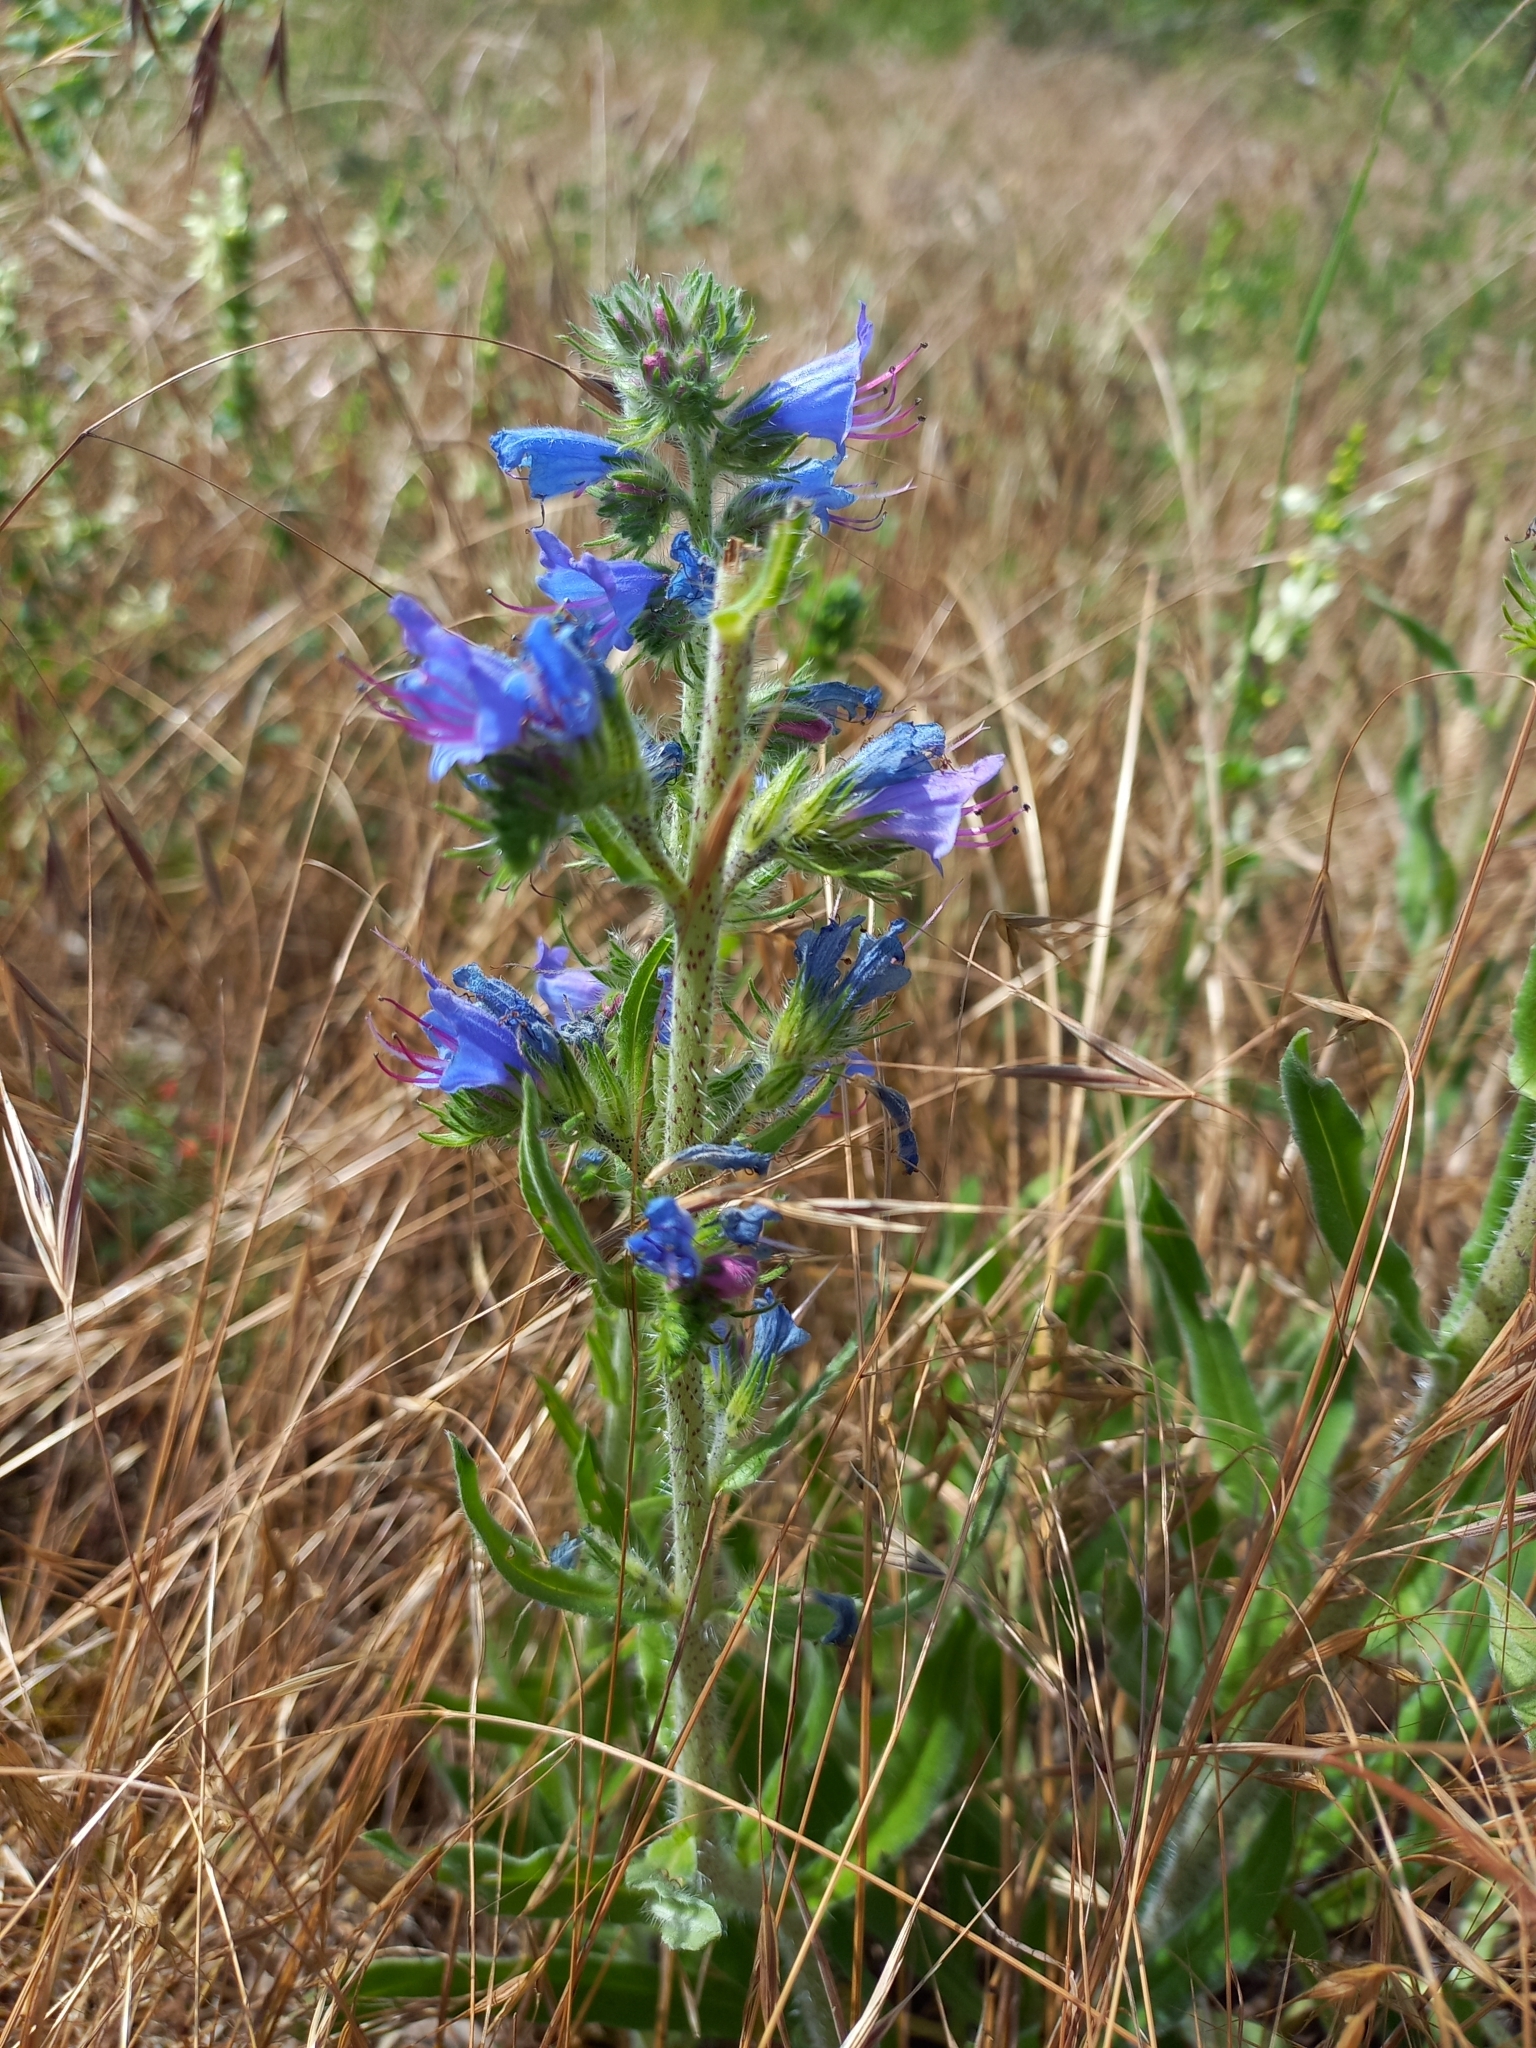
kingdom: Plantae
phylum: Tracheophyta
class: Magnoliopsida
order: Boraginales
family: Boraginaceae
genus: Echium
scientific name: Echium vulgare
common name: Common viper's bugloss
